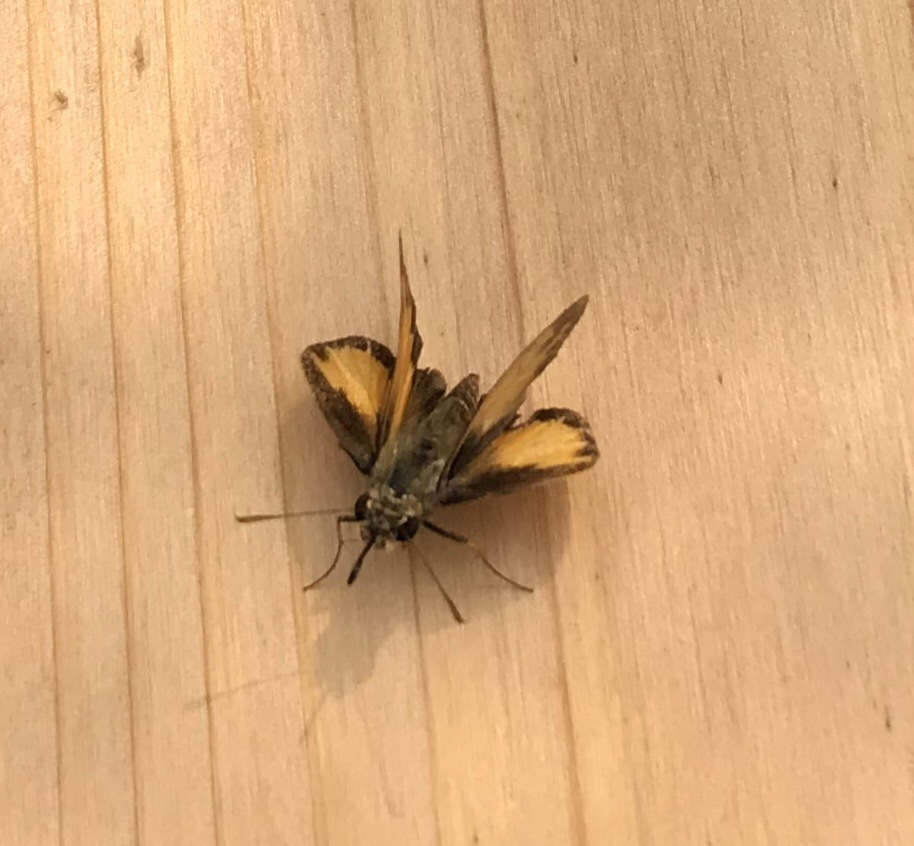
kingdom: Animalia
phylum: Arthropoda
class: Insecta
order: Lepidoptera
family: Hesperiidae
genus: Lon
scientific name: Lon zabulon
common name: Zabulon skipper
